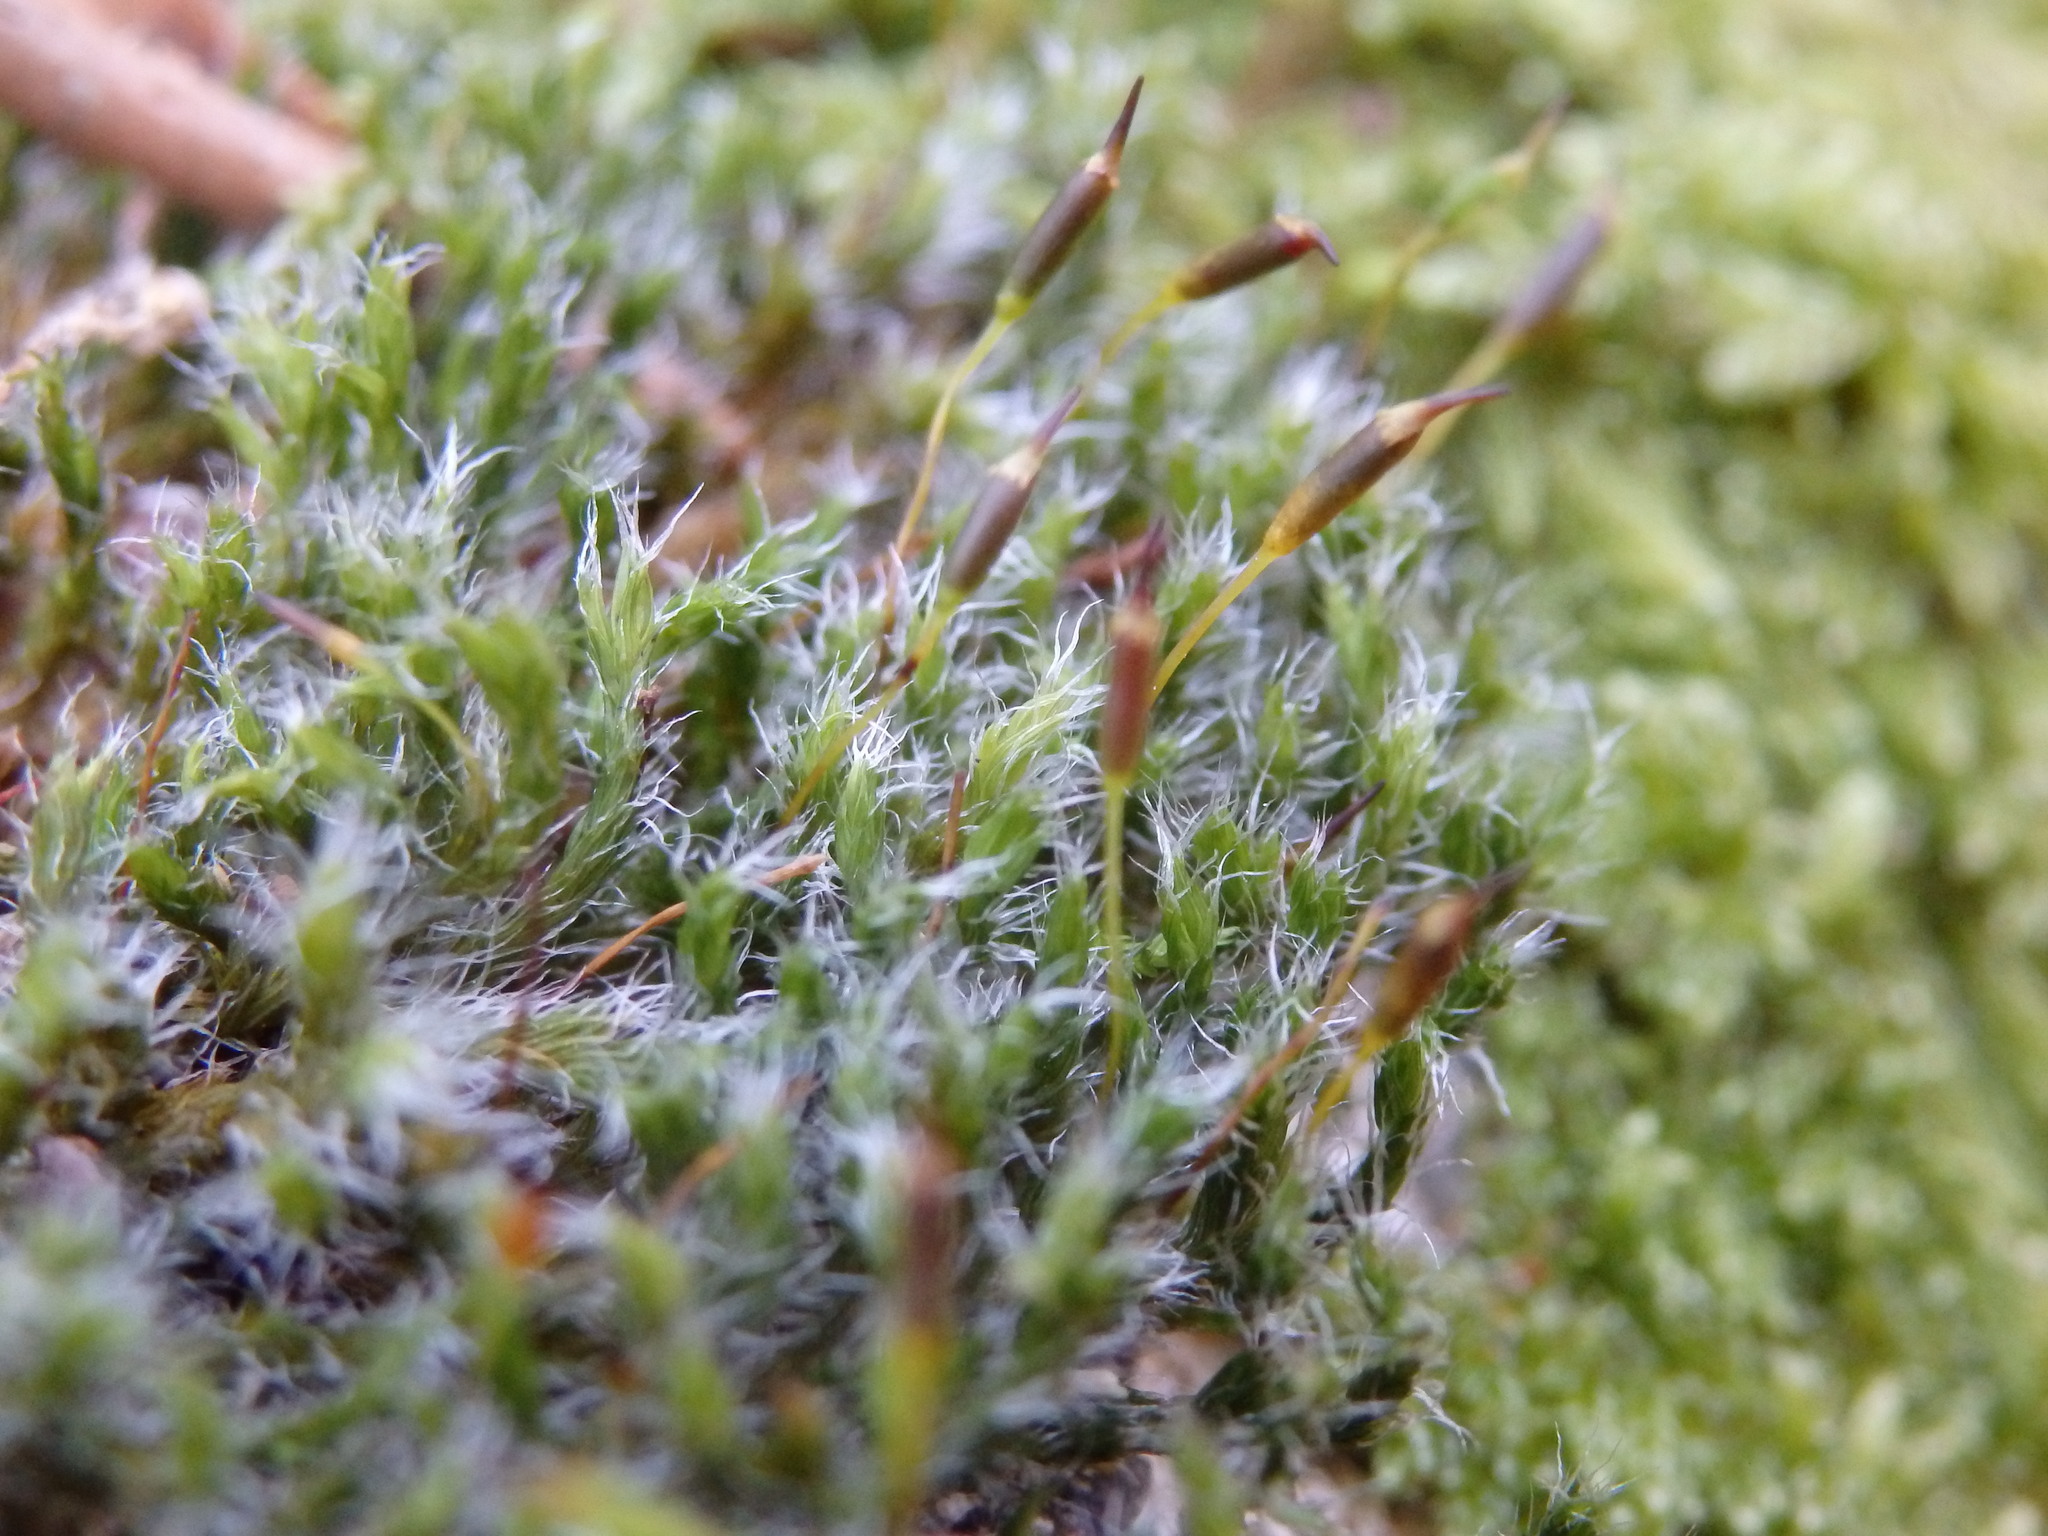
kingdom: Plantae
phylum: Bryophyta
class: Bryopsida
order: Grimmiales
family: Grimmiaceae
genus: Bucklandiella
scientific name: Bucklandiella heterosticha
